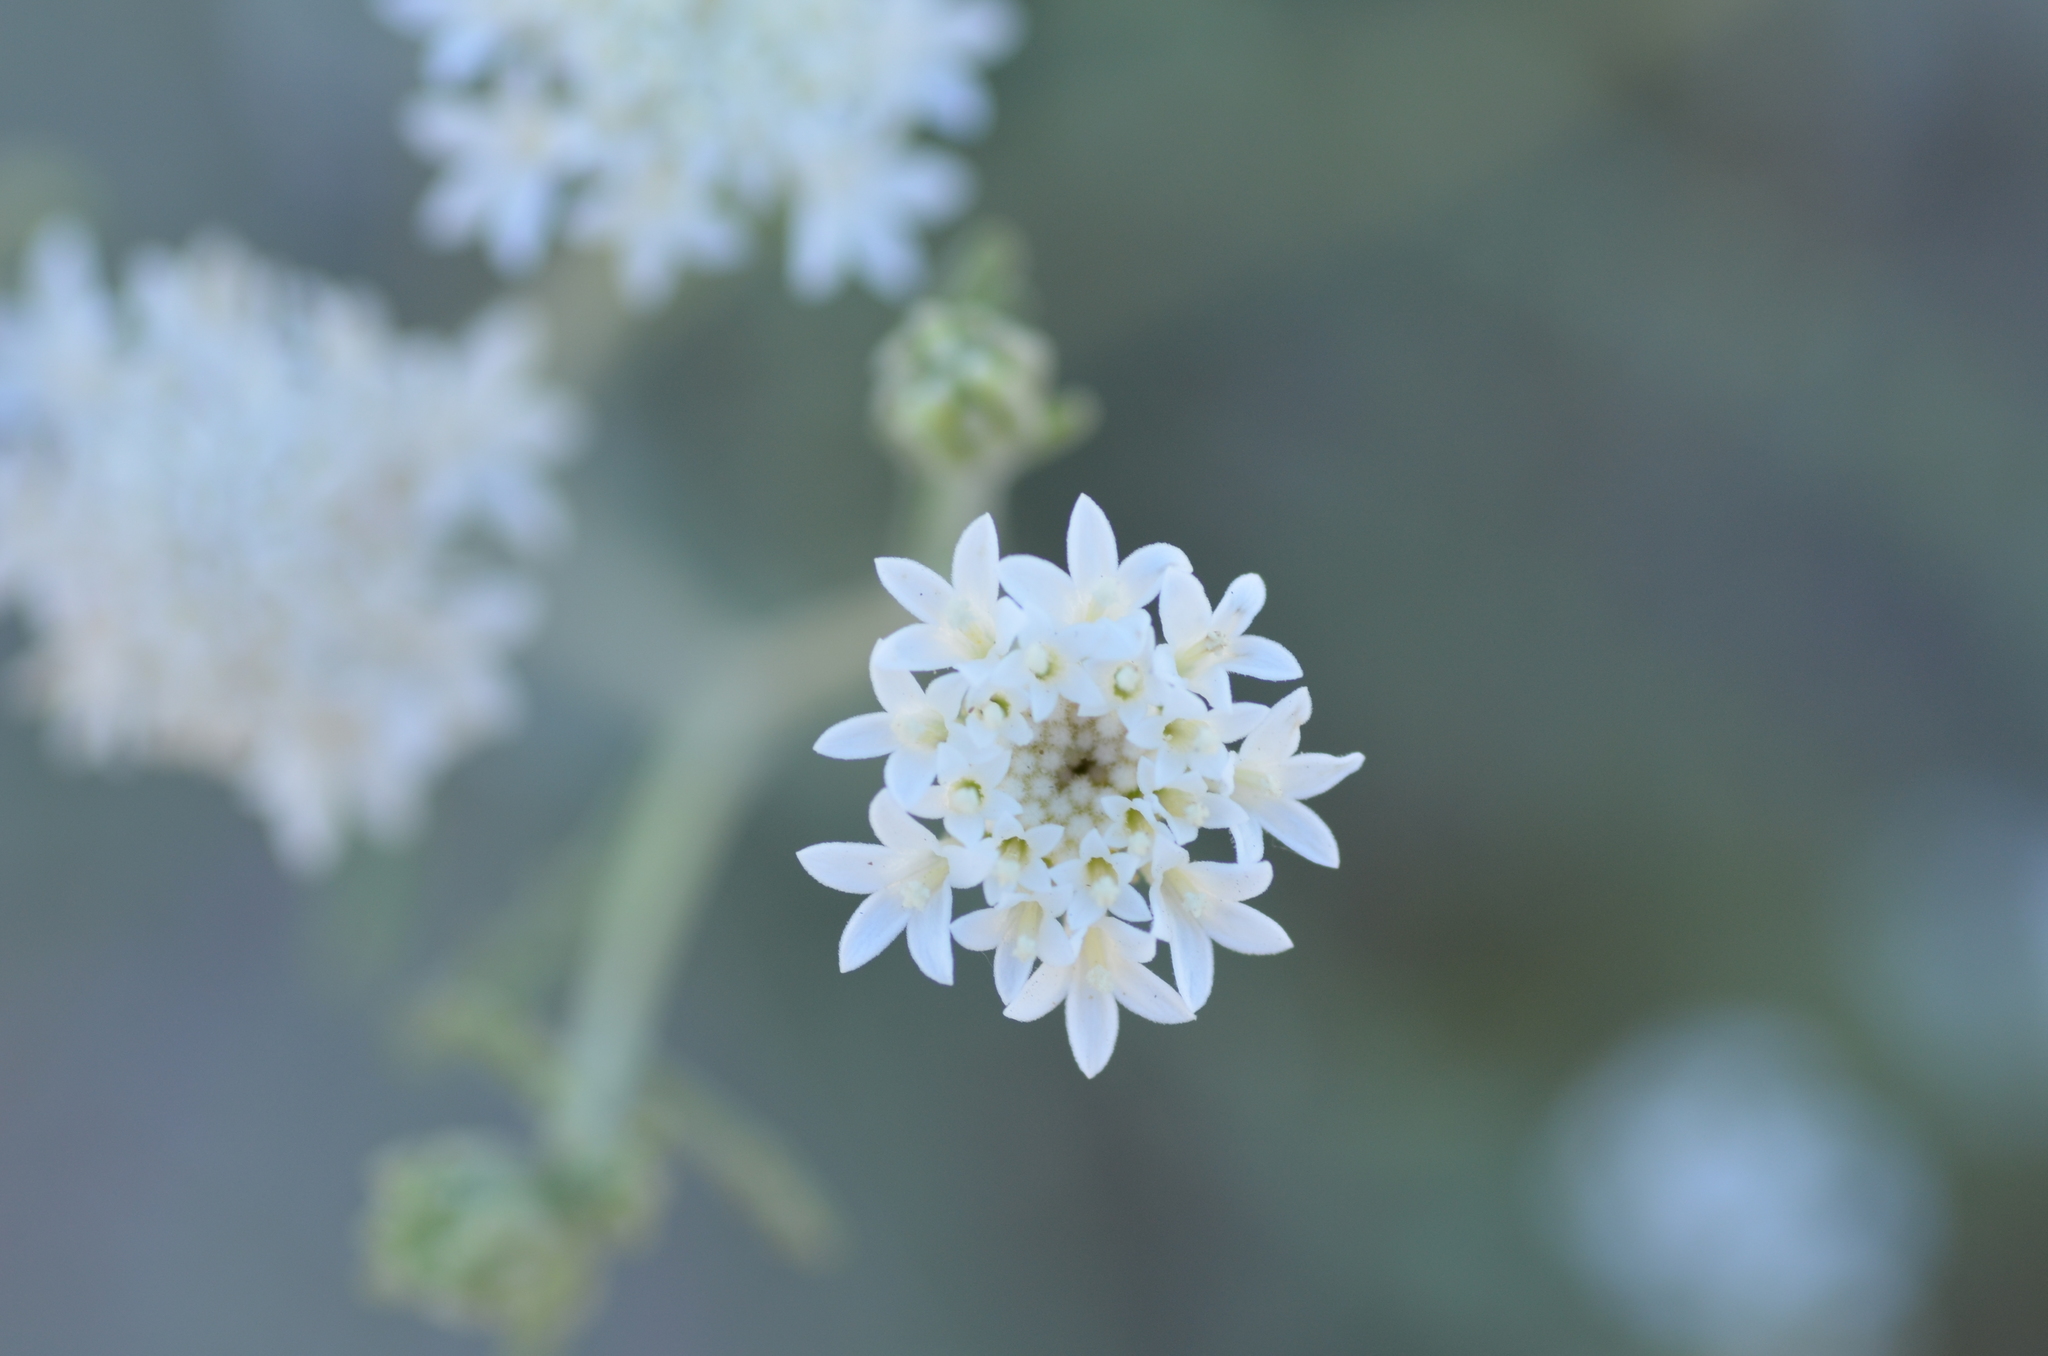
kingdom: Plantae
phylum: Tracheophyta
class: Magnoliopsida
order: Asterales
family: Asteraceae
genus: Chaenactis
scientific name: Chaenactis stevioides
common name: Desert pincushion
